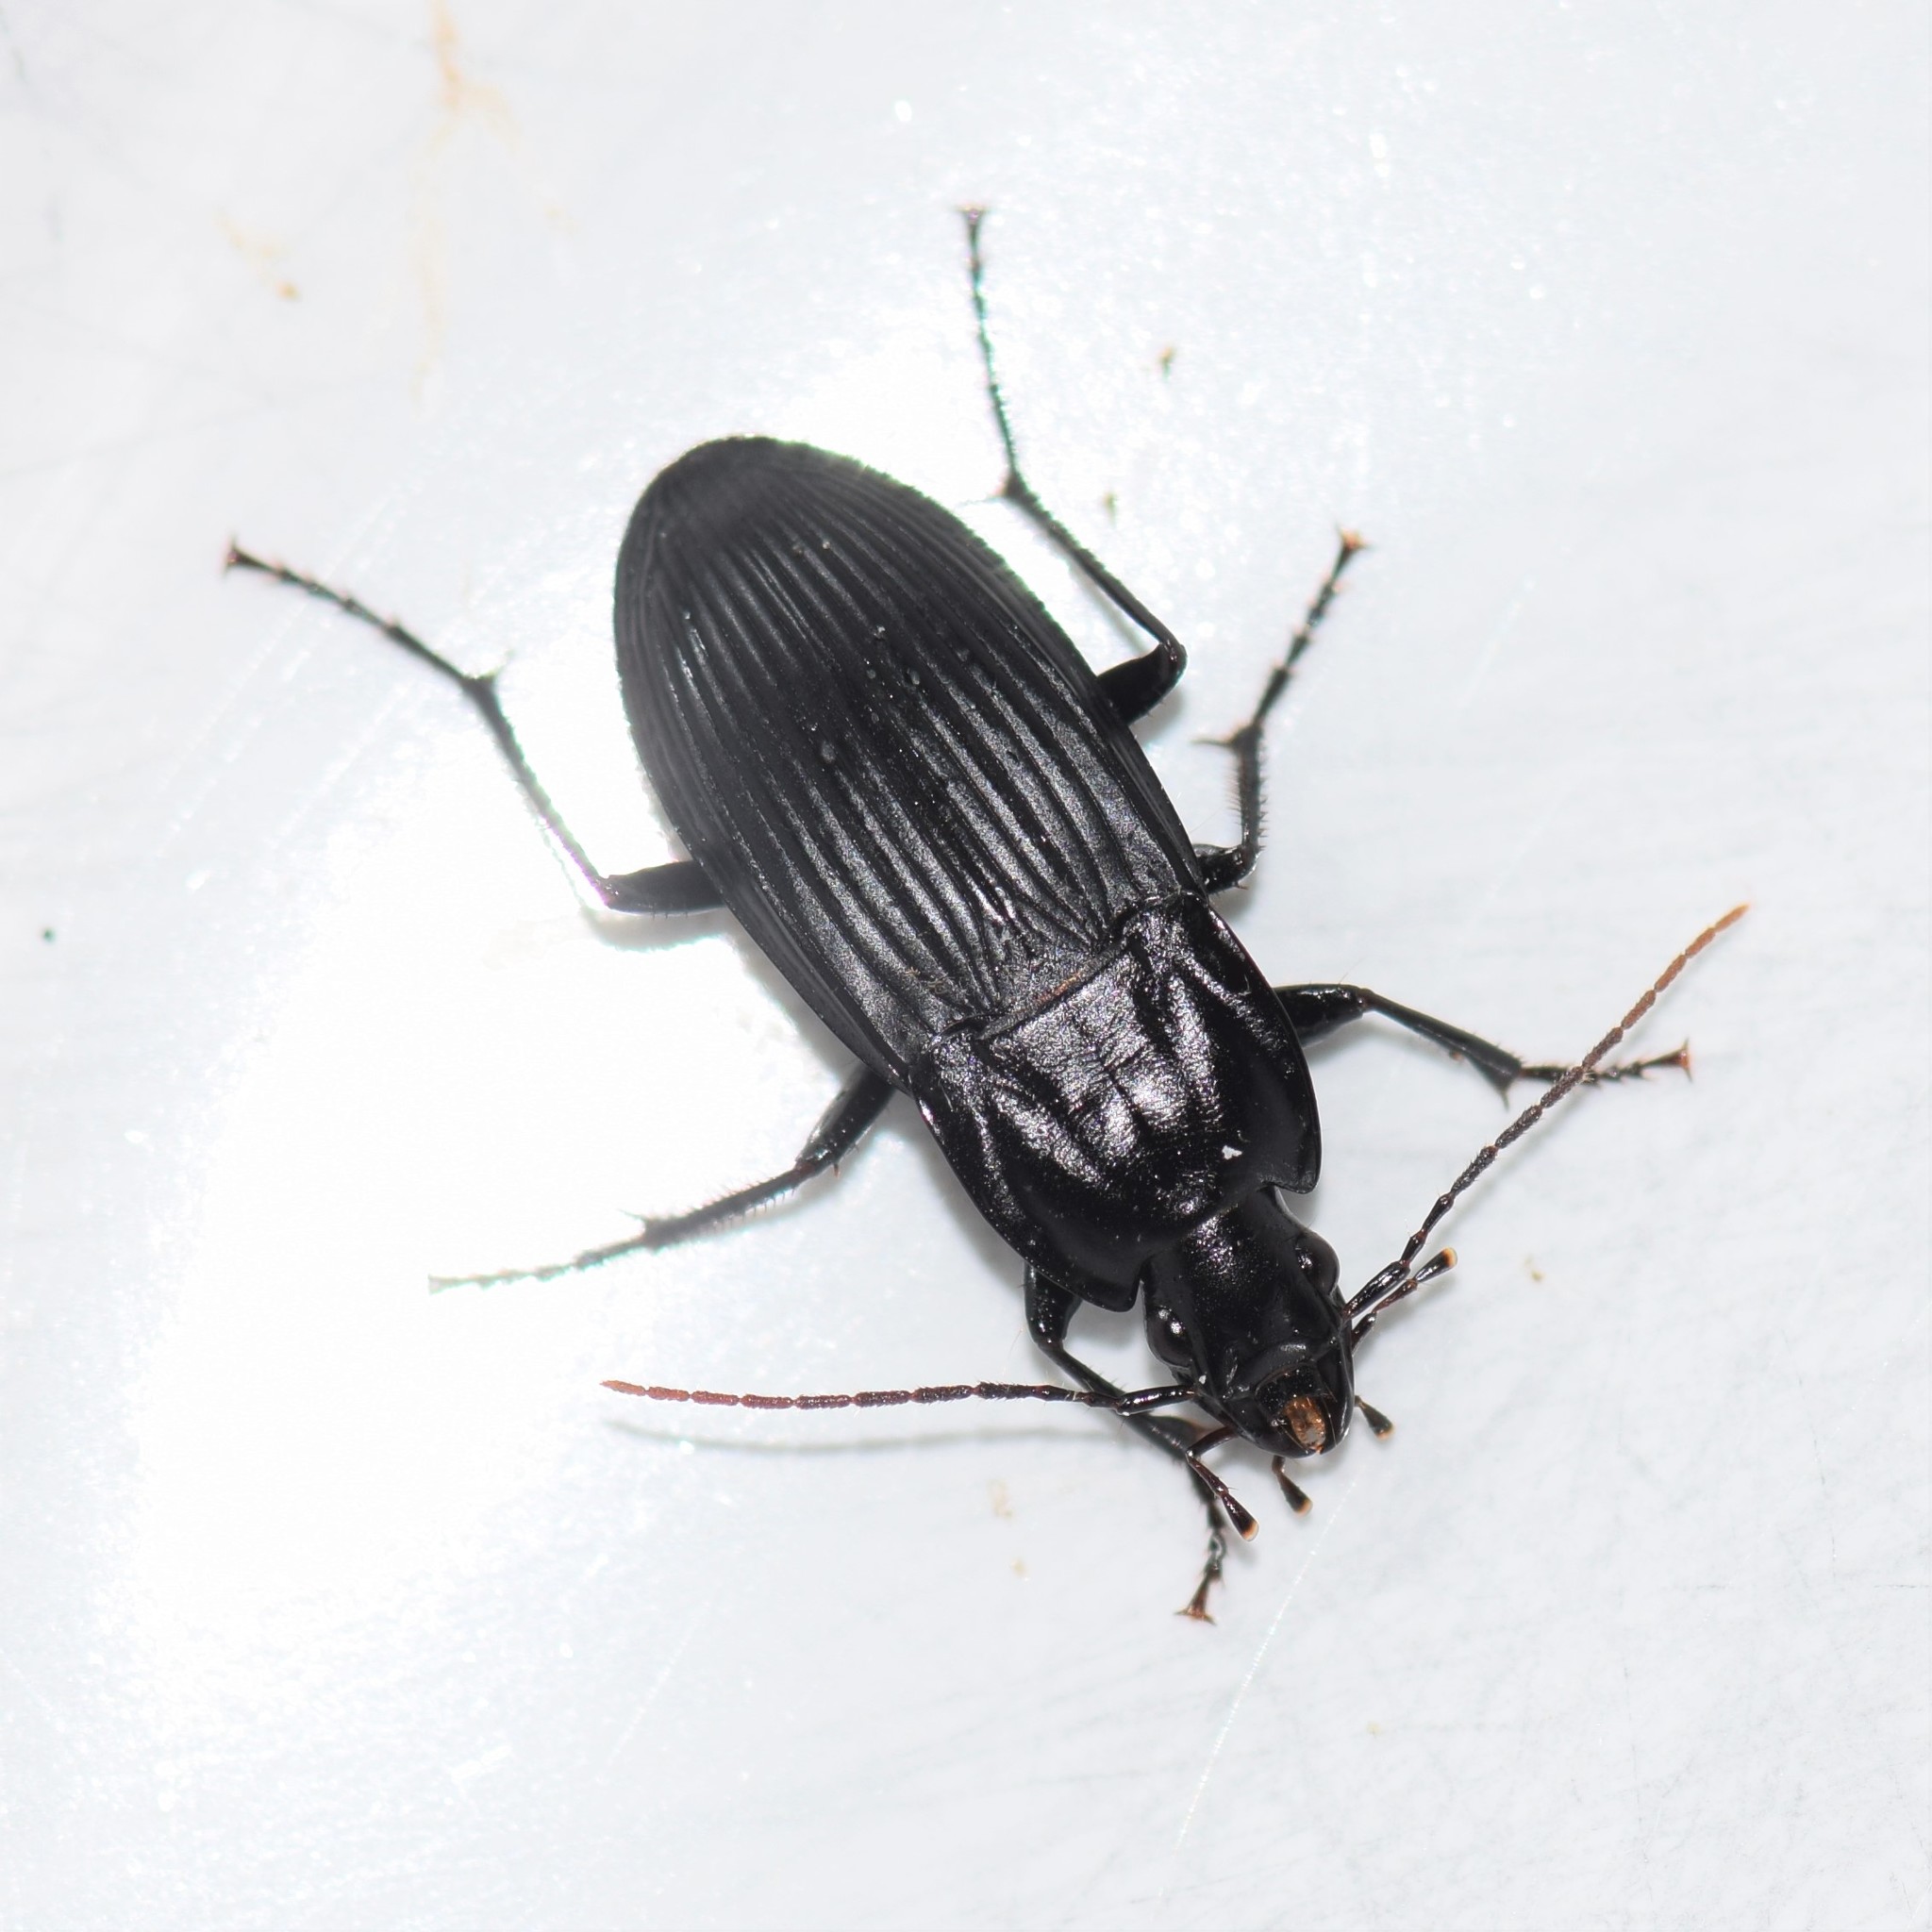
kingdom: Animalia
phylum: Arthropoda
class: Insecta
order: Coleoptera
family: Carabidae
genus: Dicaelus
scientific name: Dicaelus elongatus
